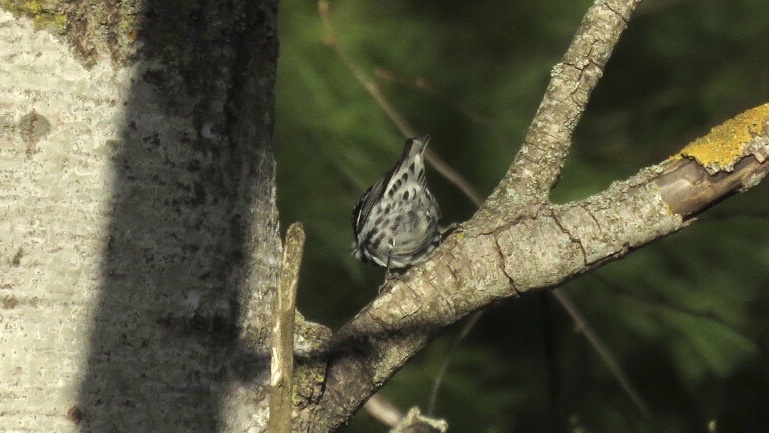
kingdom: Animalia
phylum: Chordata
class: Aves
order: Passeriformes
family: Parulidae
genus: Mniotilta
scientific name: Mniotilta varia
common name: Black-and-white warbler
